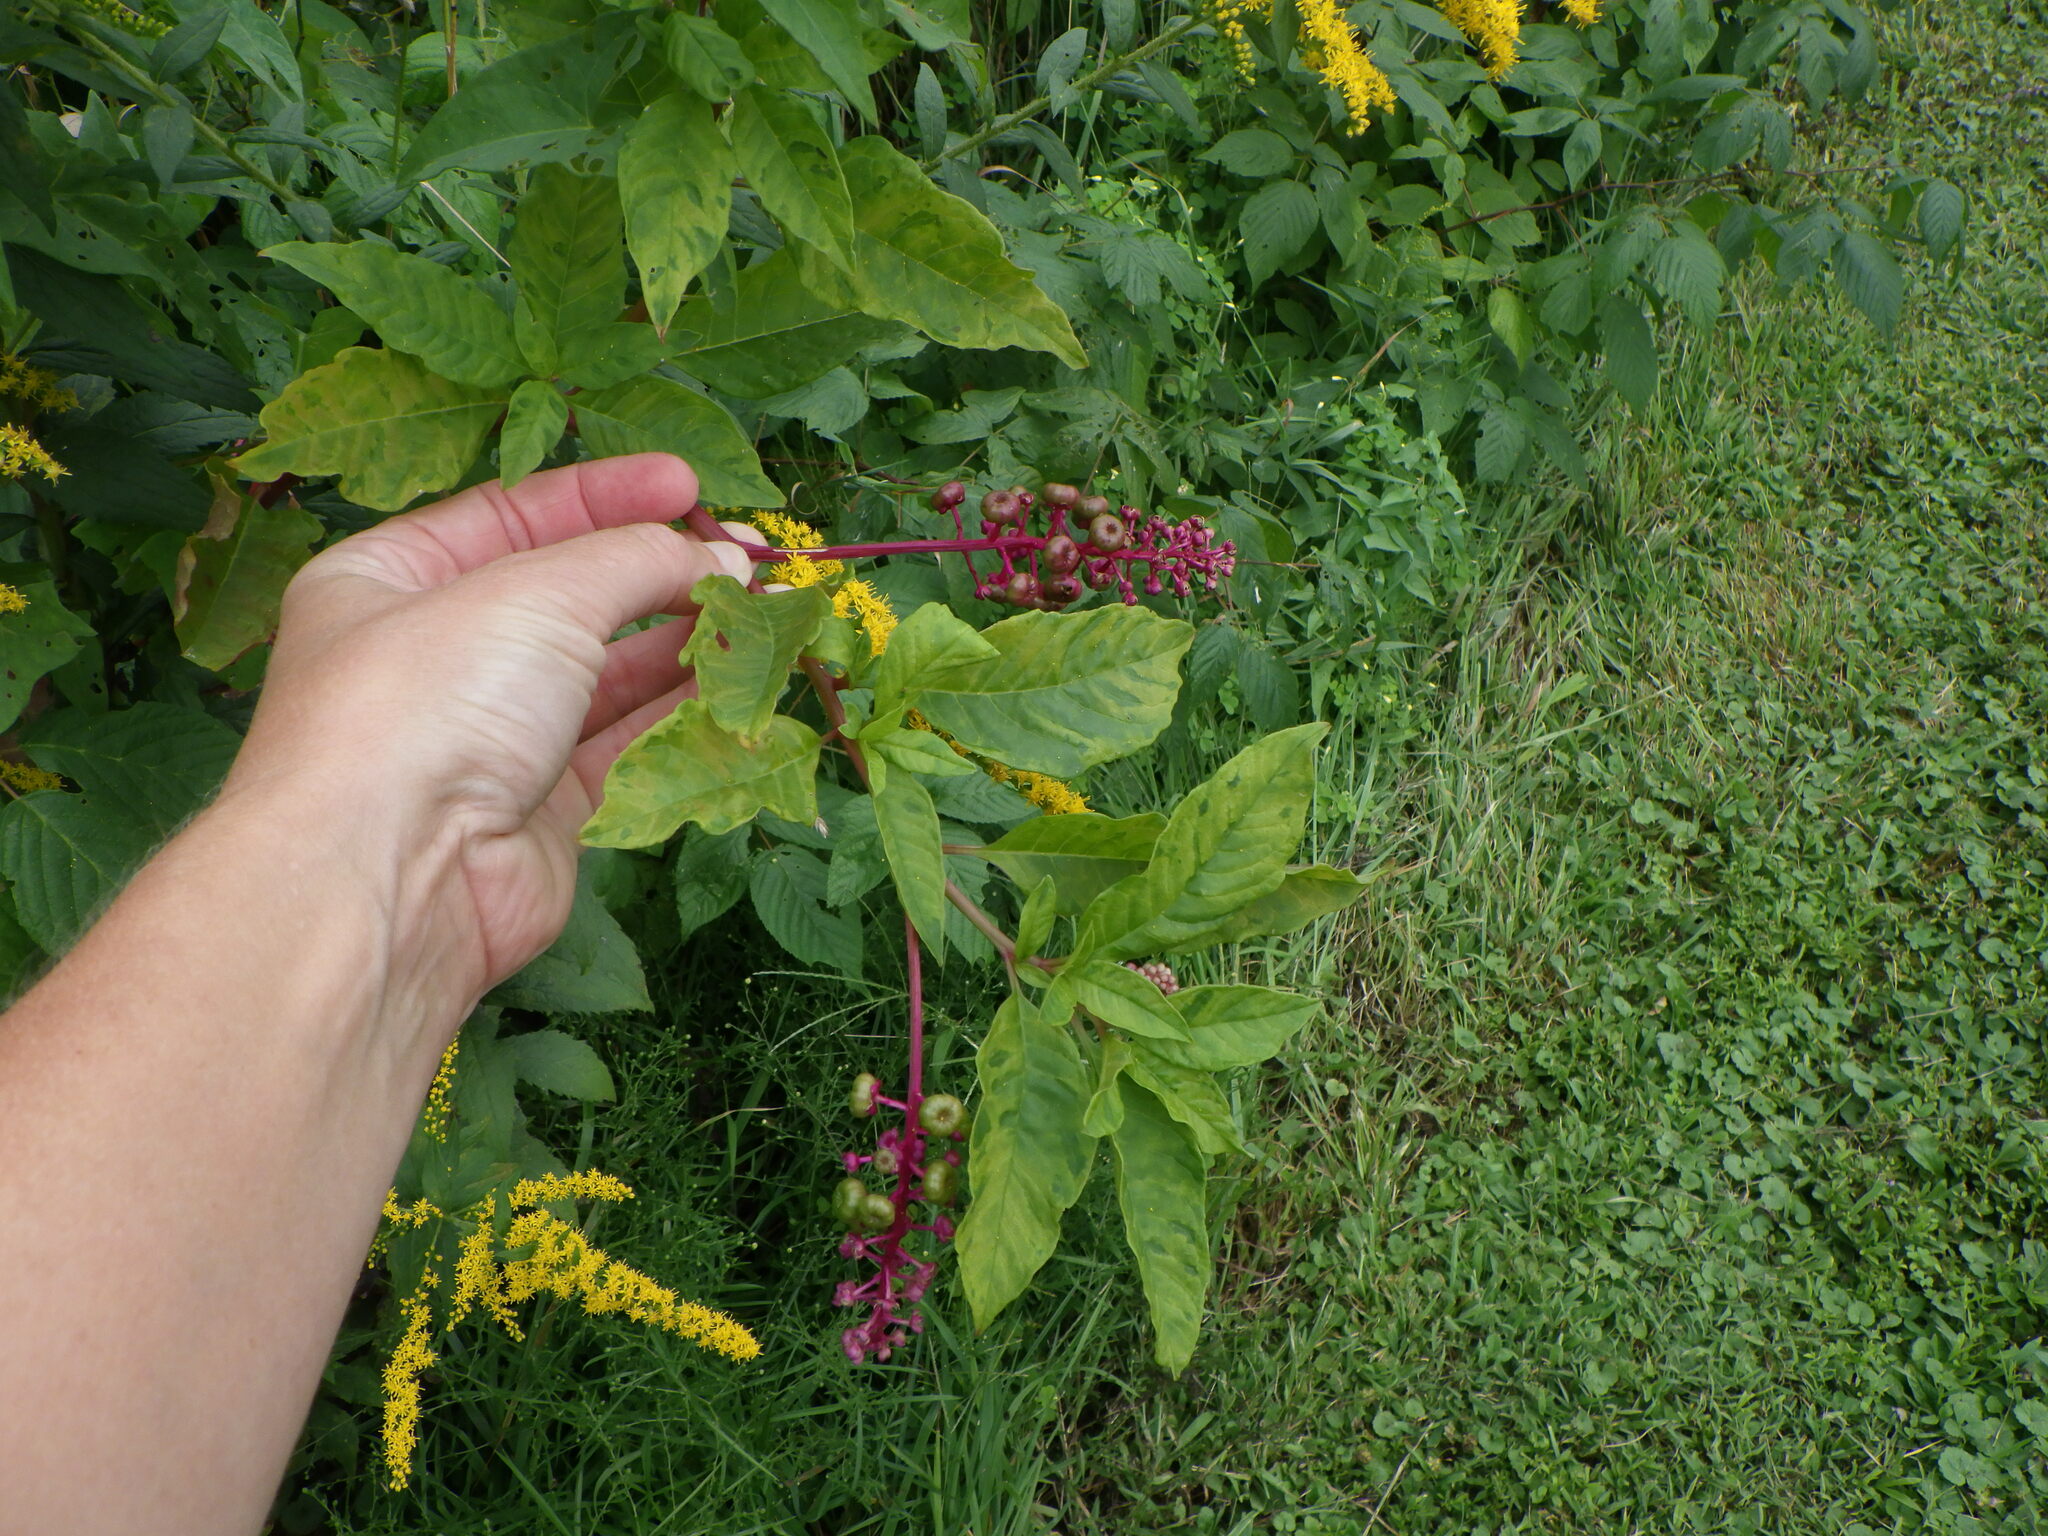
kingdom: Plantae
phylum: Tracheophyta
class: Magnoliopsida
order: Caryophyllales
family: Phytolaccaceae
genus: Phytolacca
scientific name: Phytolacca americana
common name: American pokeweed
